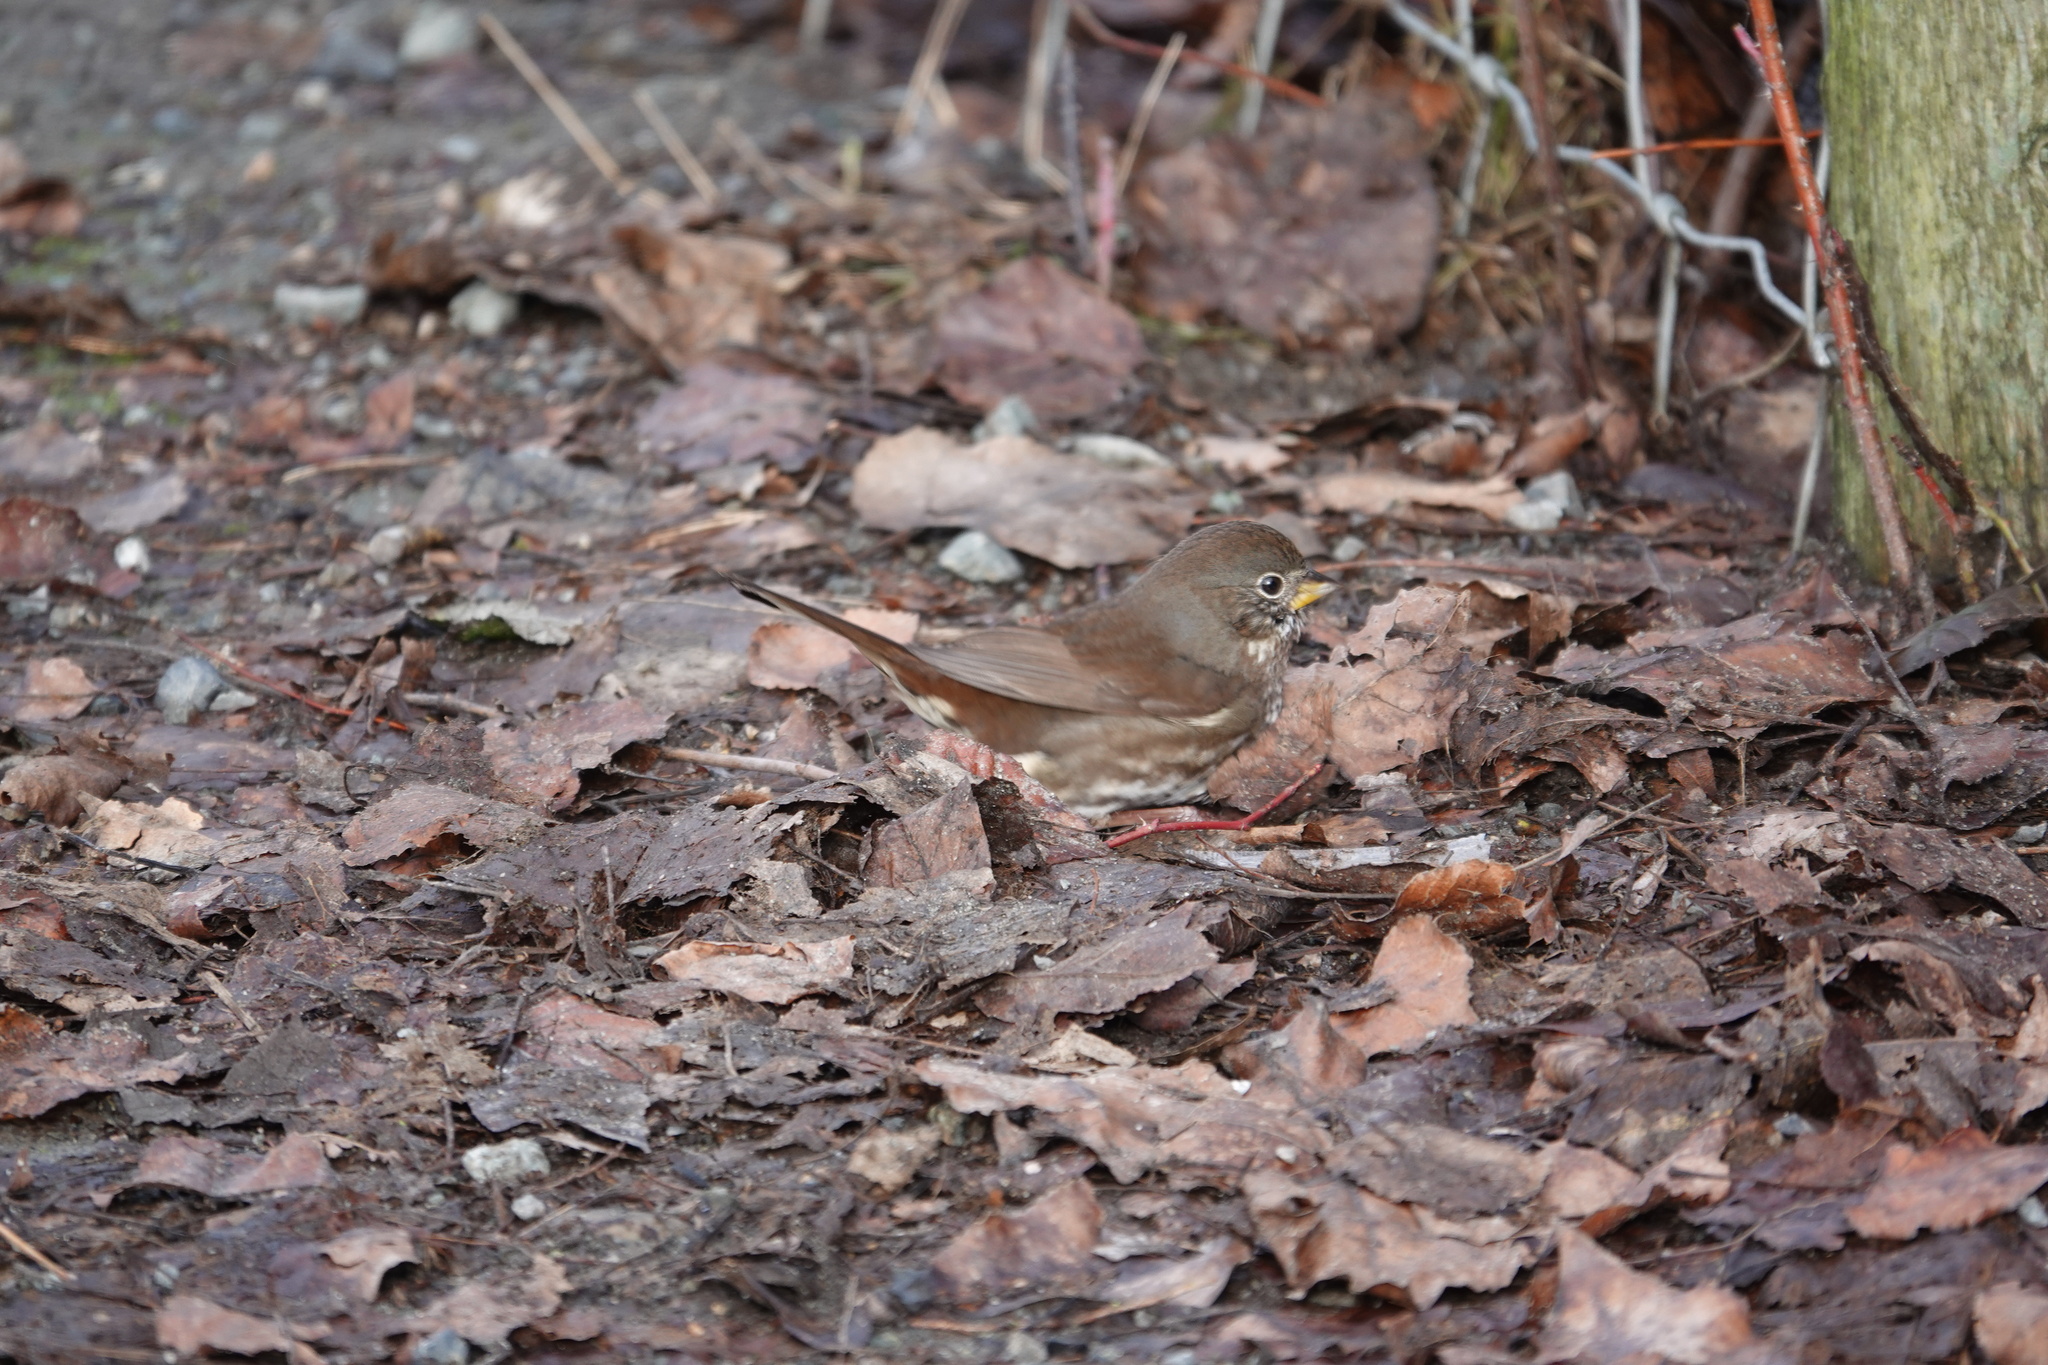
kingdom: Animalia
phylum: Chordata
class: Aves
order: Passeriformes
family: Passerellidae
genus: Passerella
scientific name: Passerella iliaca
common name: Fox sparrow
